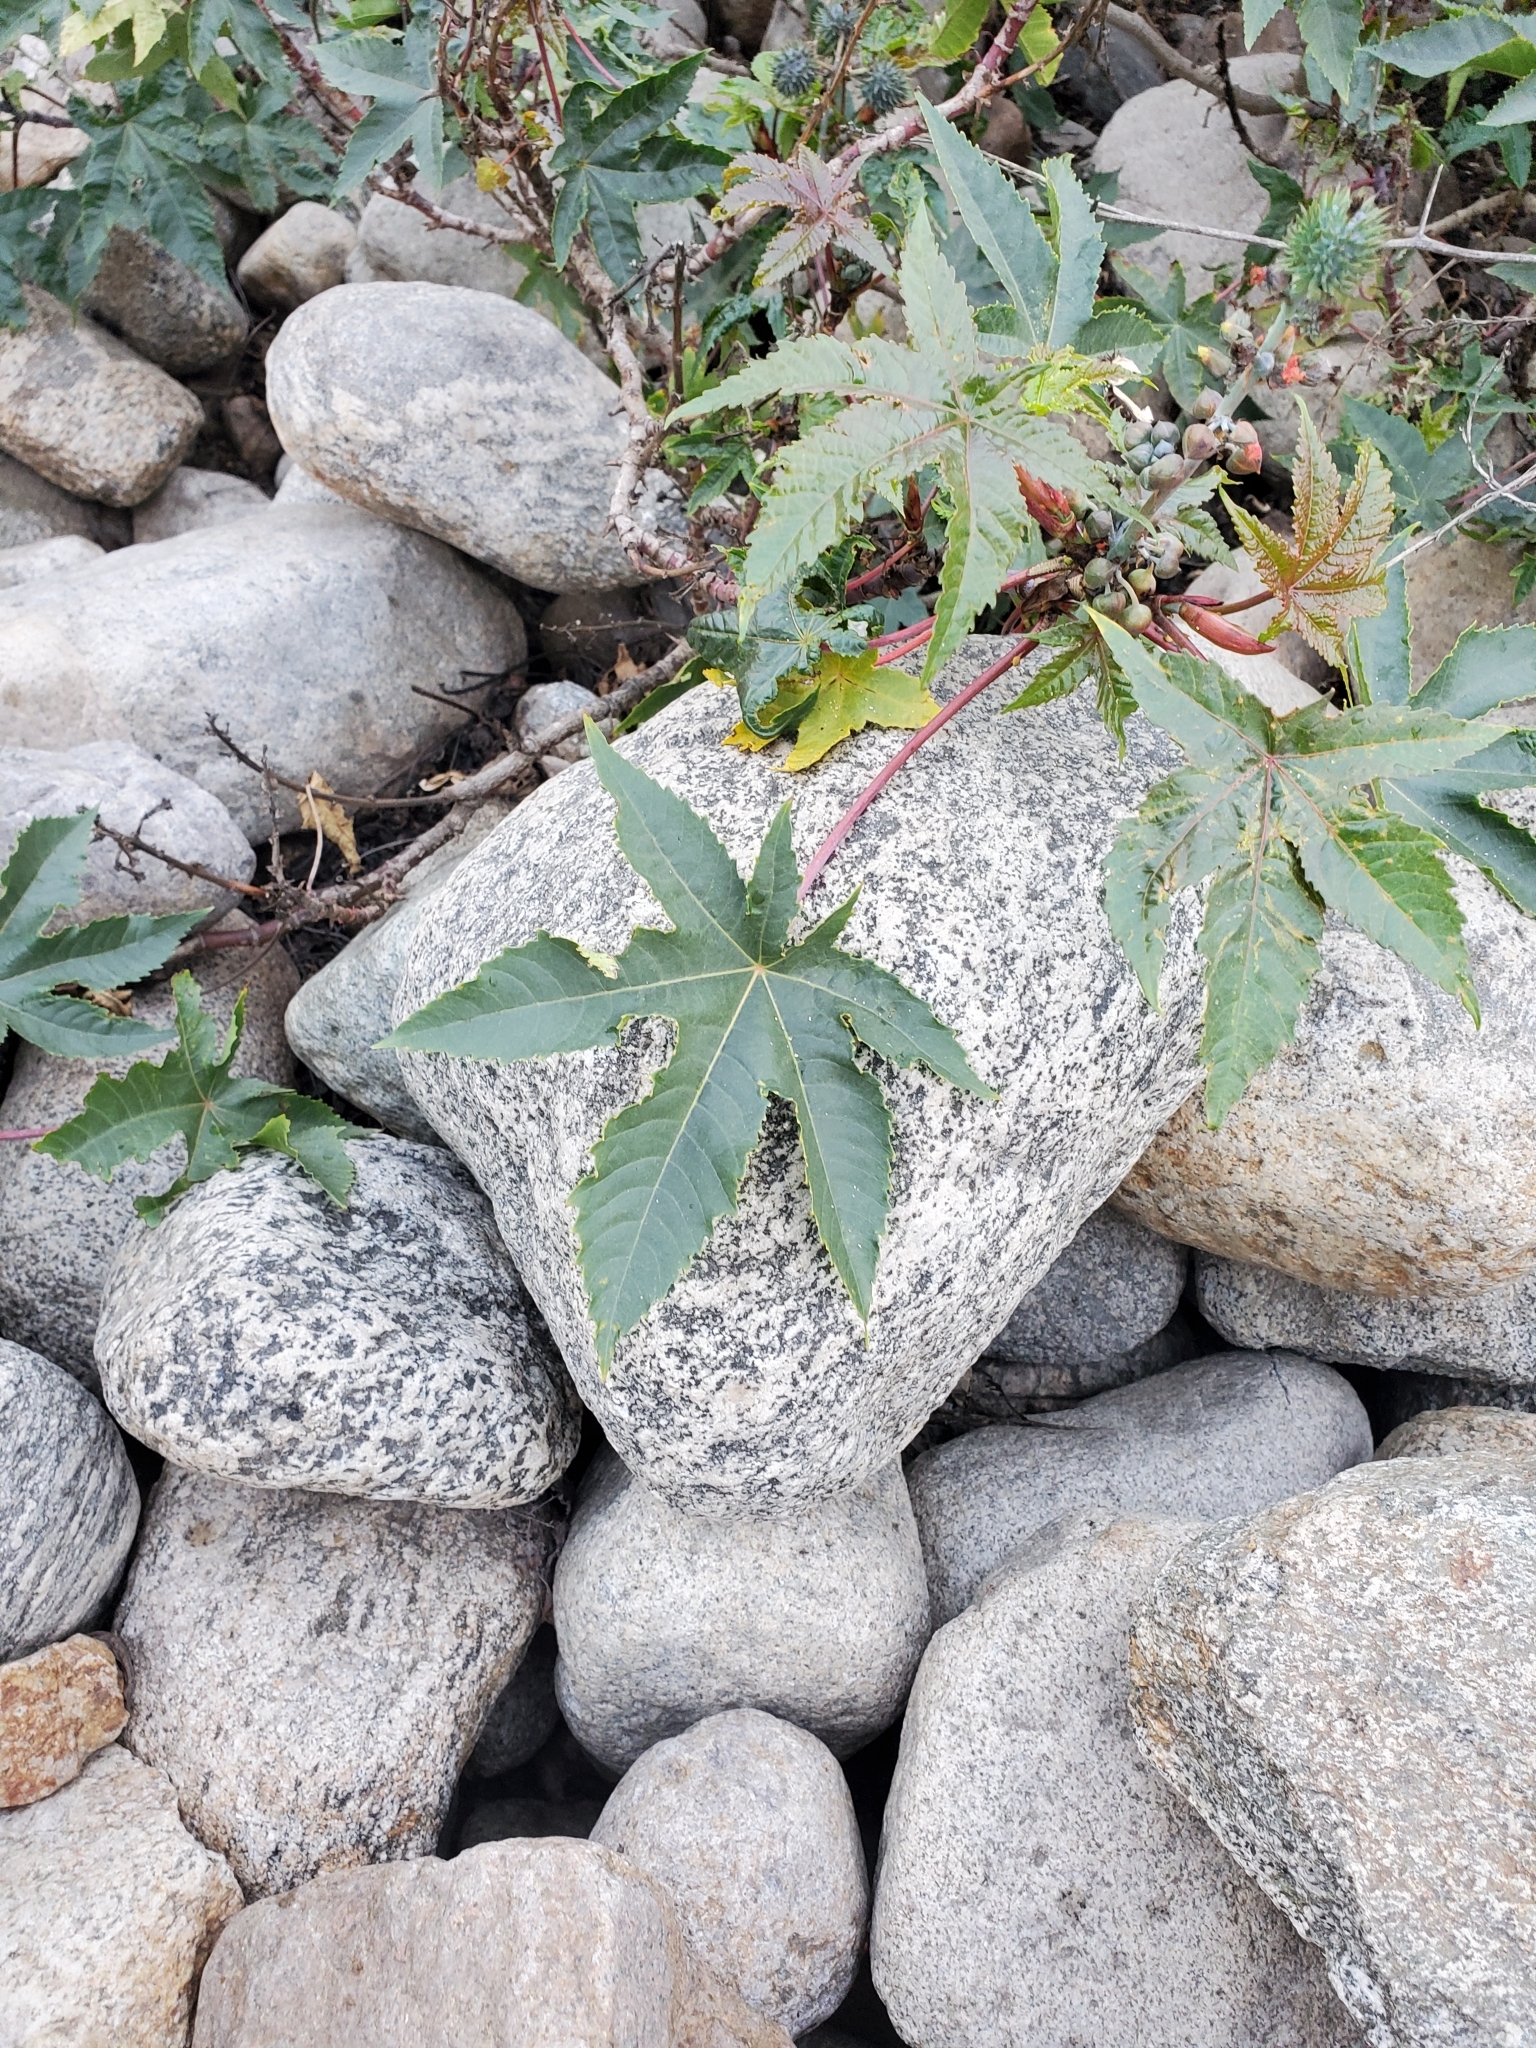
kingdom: Plantae
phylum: Tracheophyta
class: Magnoliopsida
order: Malpighiales
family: Euphorbiaceae
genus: Ricinus
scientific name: Ricinus communis
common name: Castor-oil-plant
